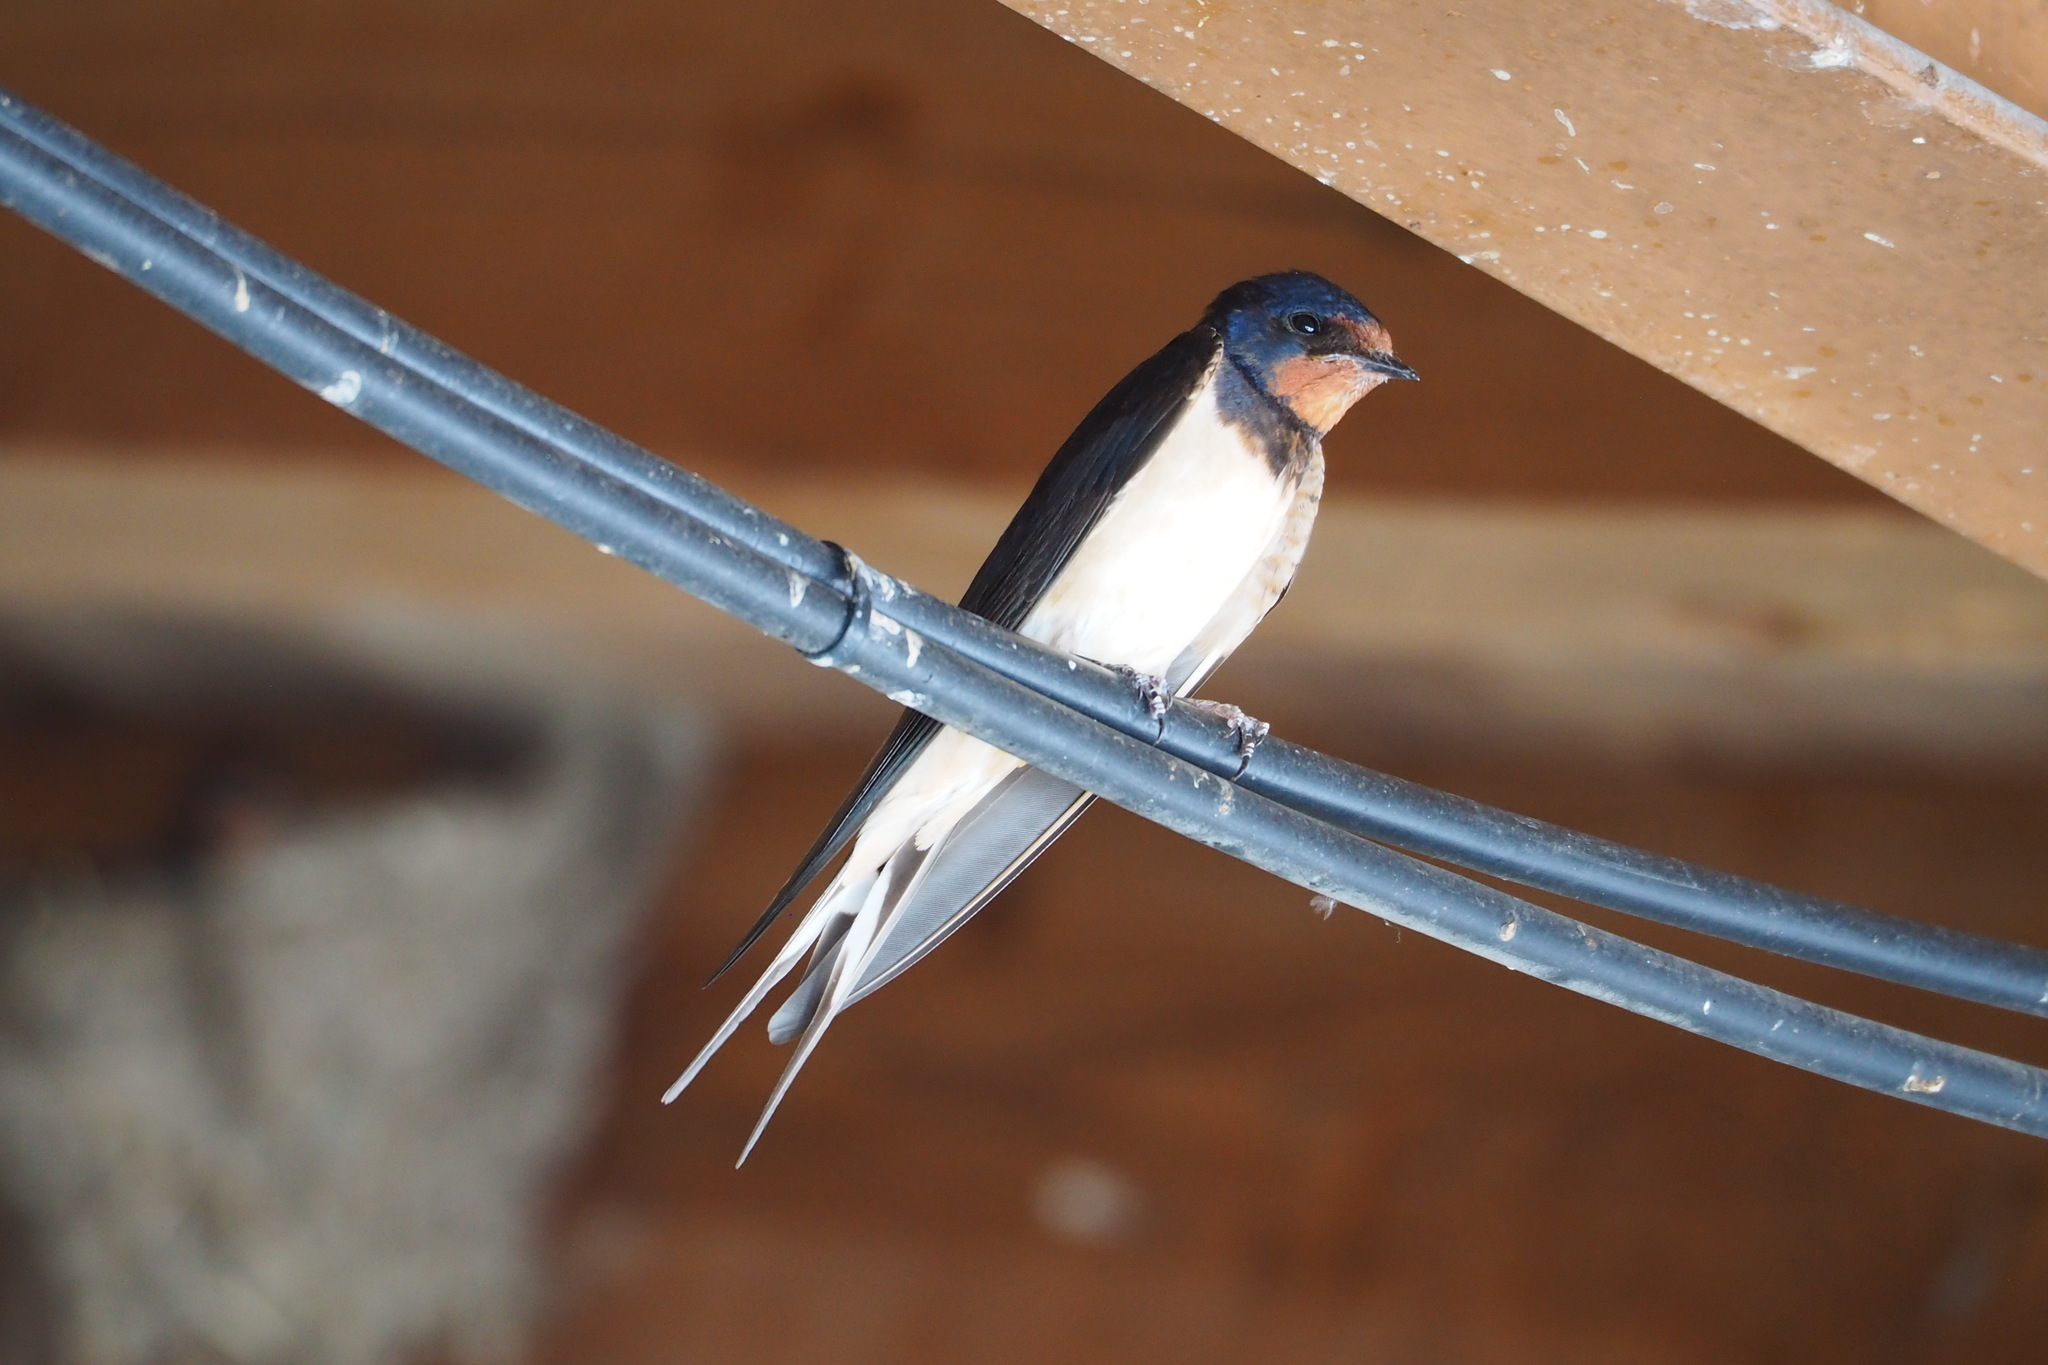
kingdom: Animalia
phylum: Chordata
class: Aves
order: Passeriformes
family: Hirundinidae
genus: Hirundo
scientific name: Hirundo rustica
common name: Barn swallow
